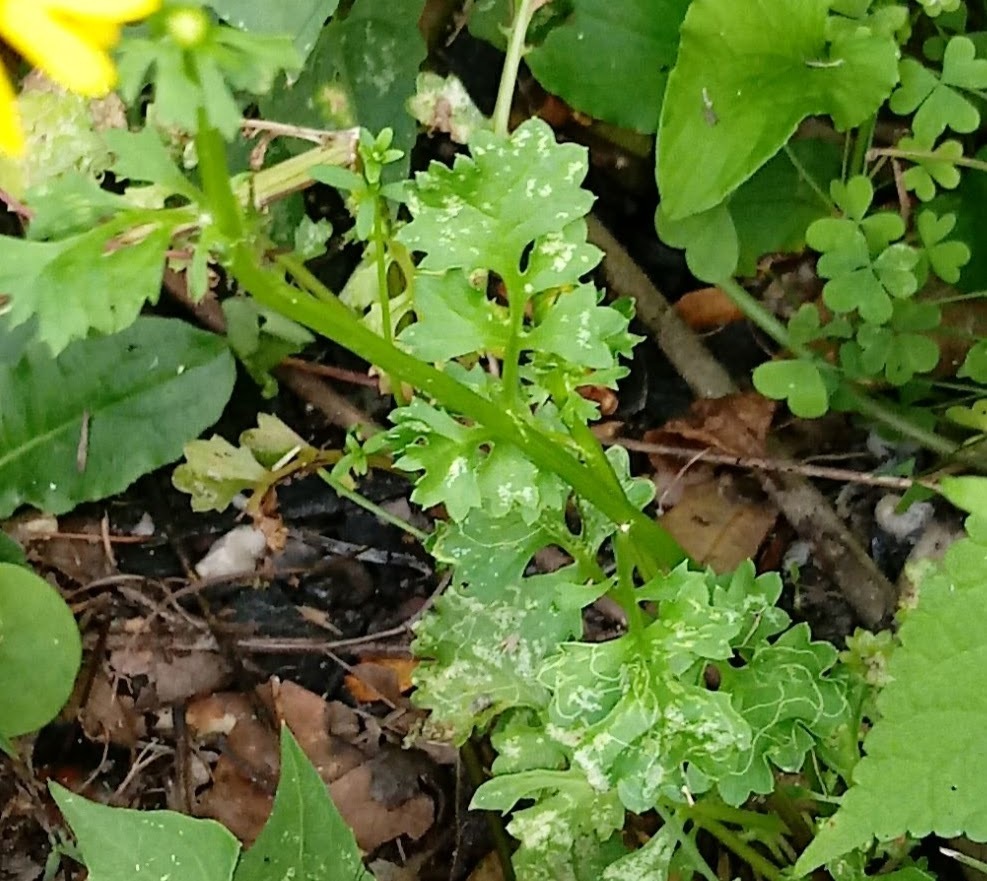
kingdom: Plantae
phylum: Tracheophyta
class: Magnoliopsida
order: Asterales
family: Asteraceae
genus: Packera
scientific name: Packera glabella
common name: Butterweed
